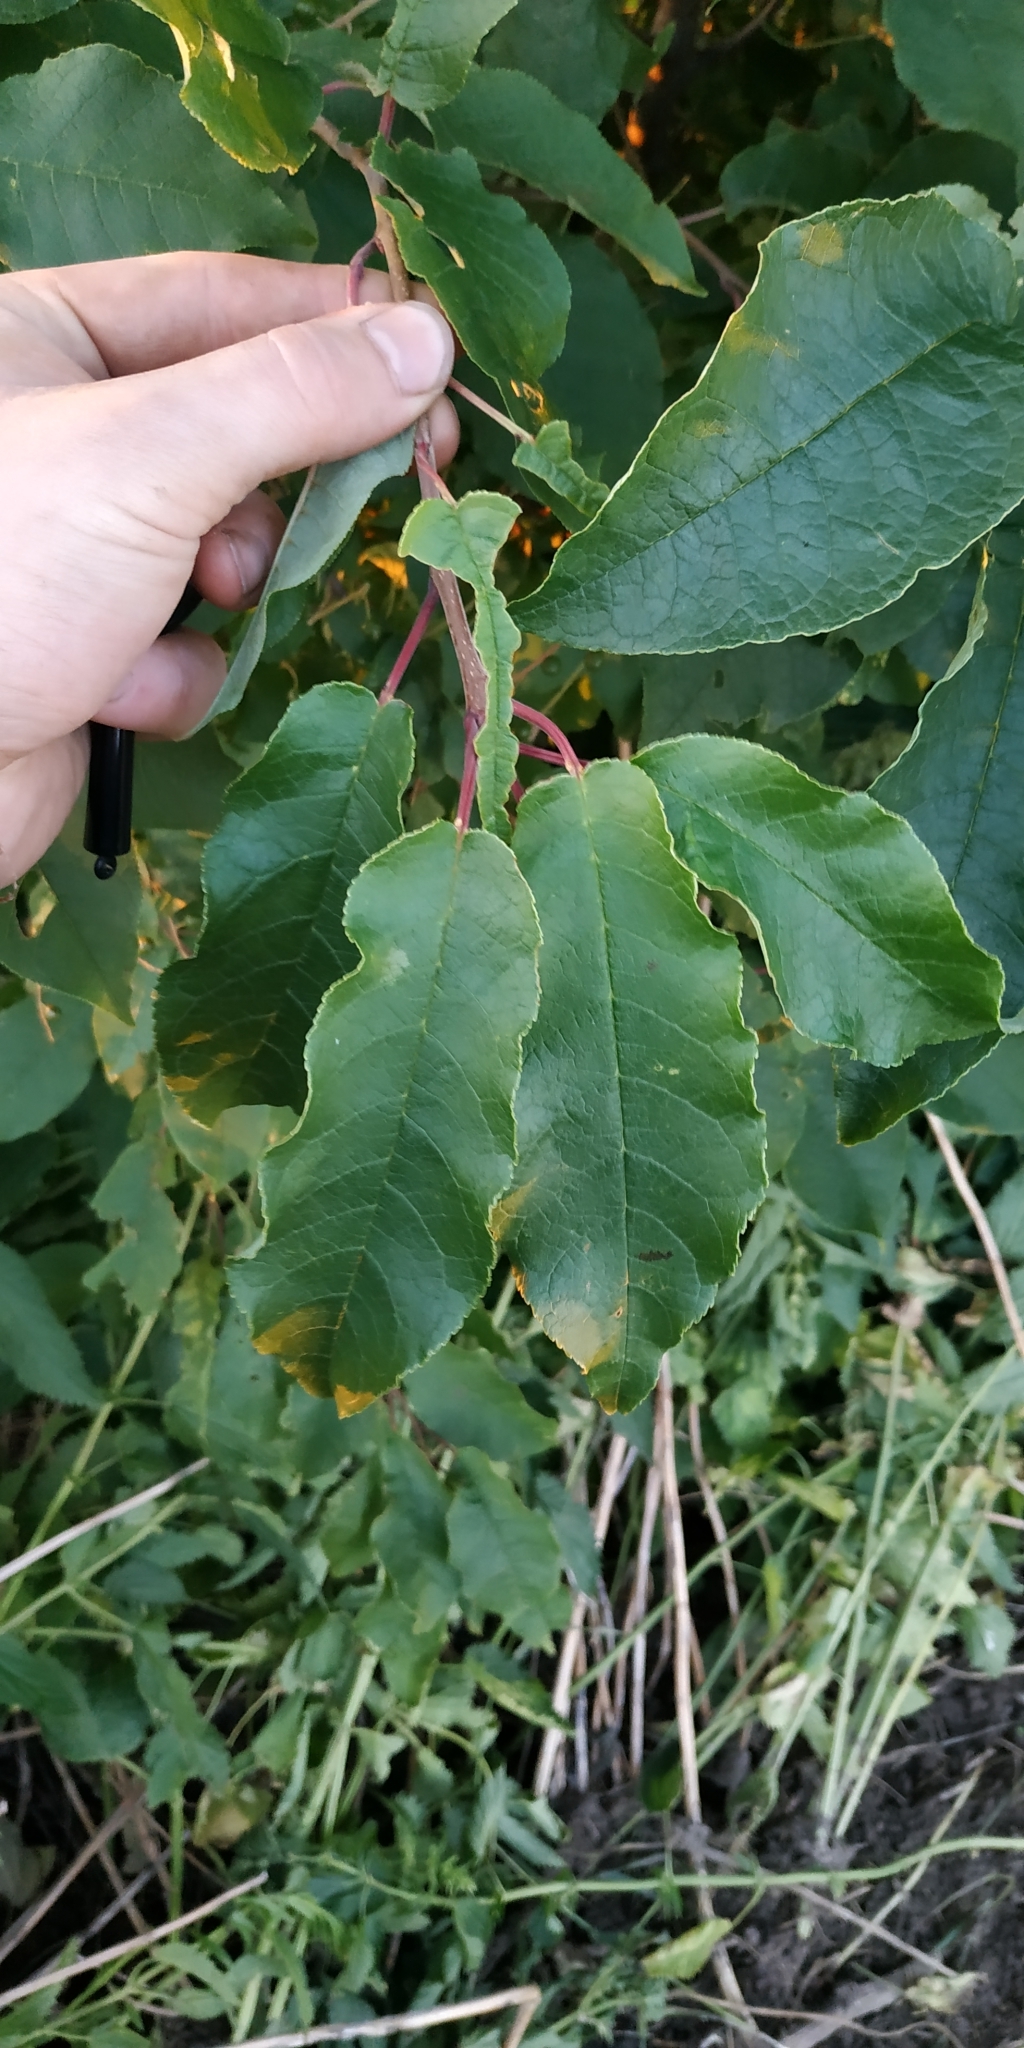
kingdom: Plantae
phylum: Tracheophyta
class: Magnoliopsida
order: Rosales
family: Rosaceae
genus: Prunus
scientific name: Prunus padus
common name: Bird cherry
